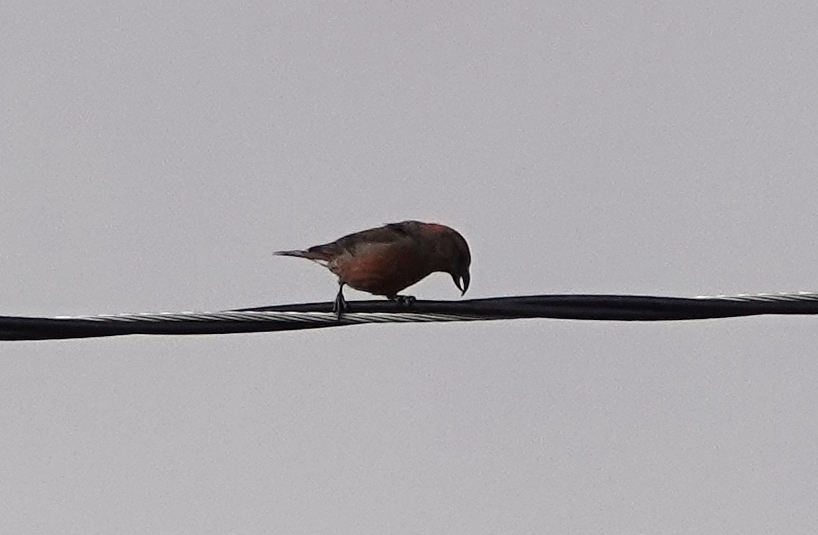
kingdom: Animalia
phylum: Chordata
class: Aves
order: Passeriformes
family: Fringillidae
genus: Loxia
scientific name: Loxia curvirostra
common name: Red crossbill
